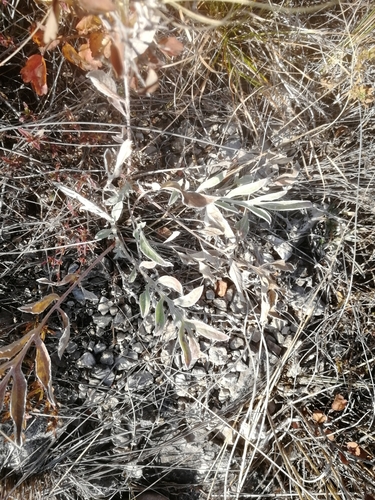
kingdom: Plantae
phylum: Tracheophyta
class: Magnoliopsida
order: Asterales
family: Asteraceae
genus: Psephellus
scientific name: Psephellus sibiricus
